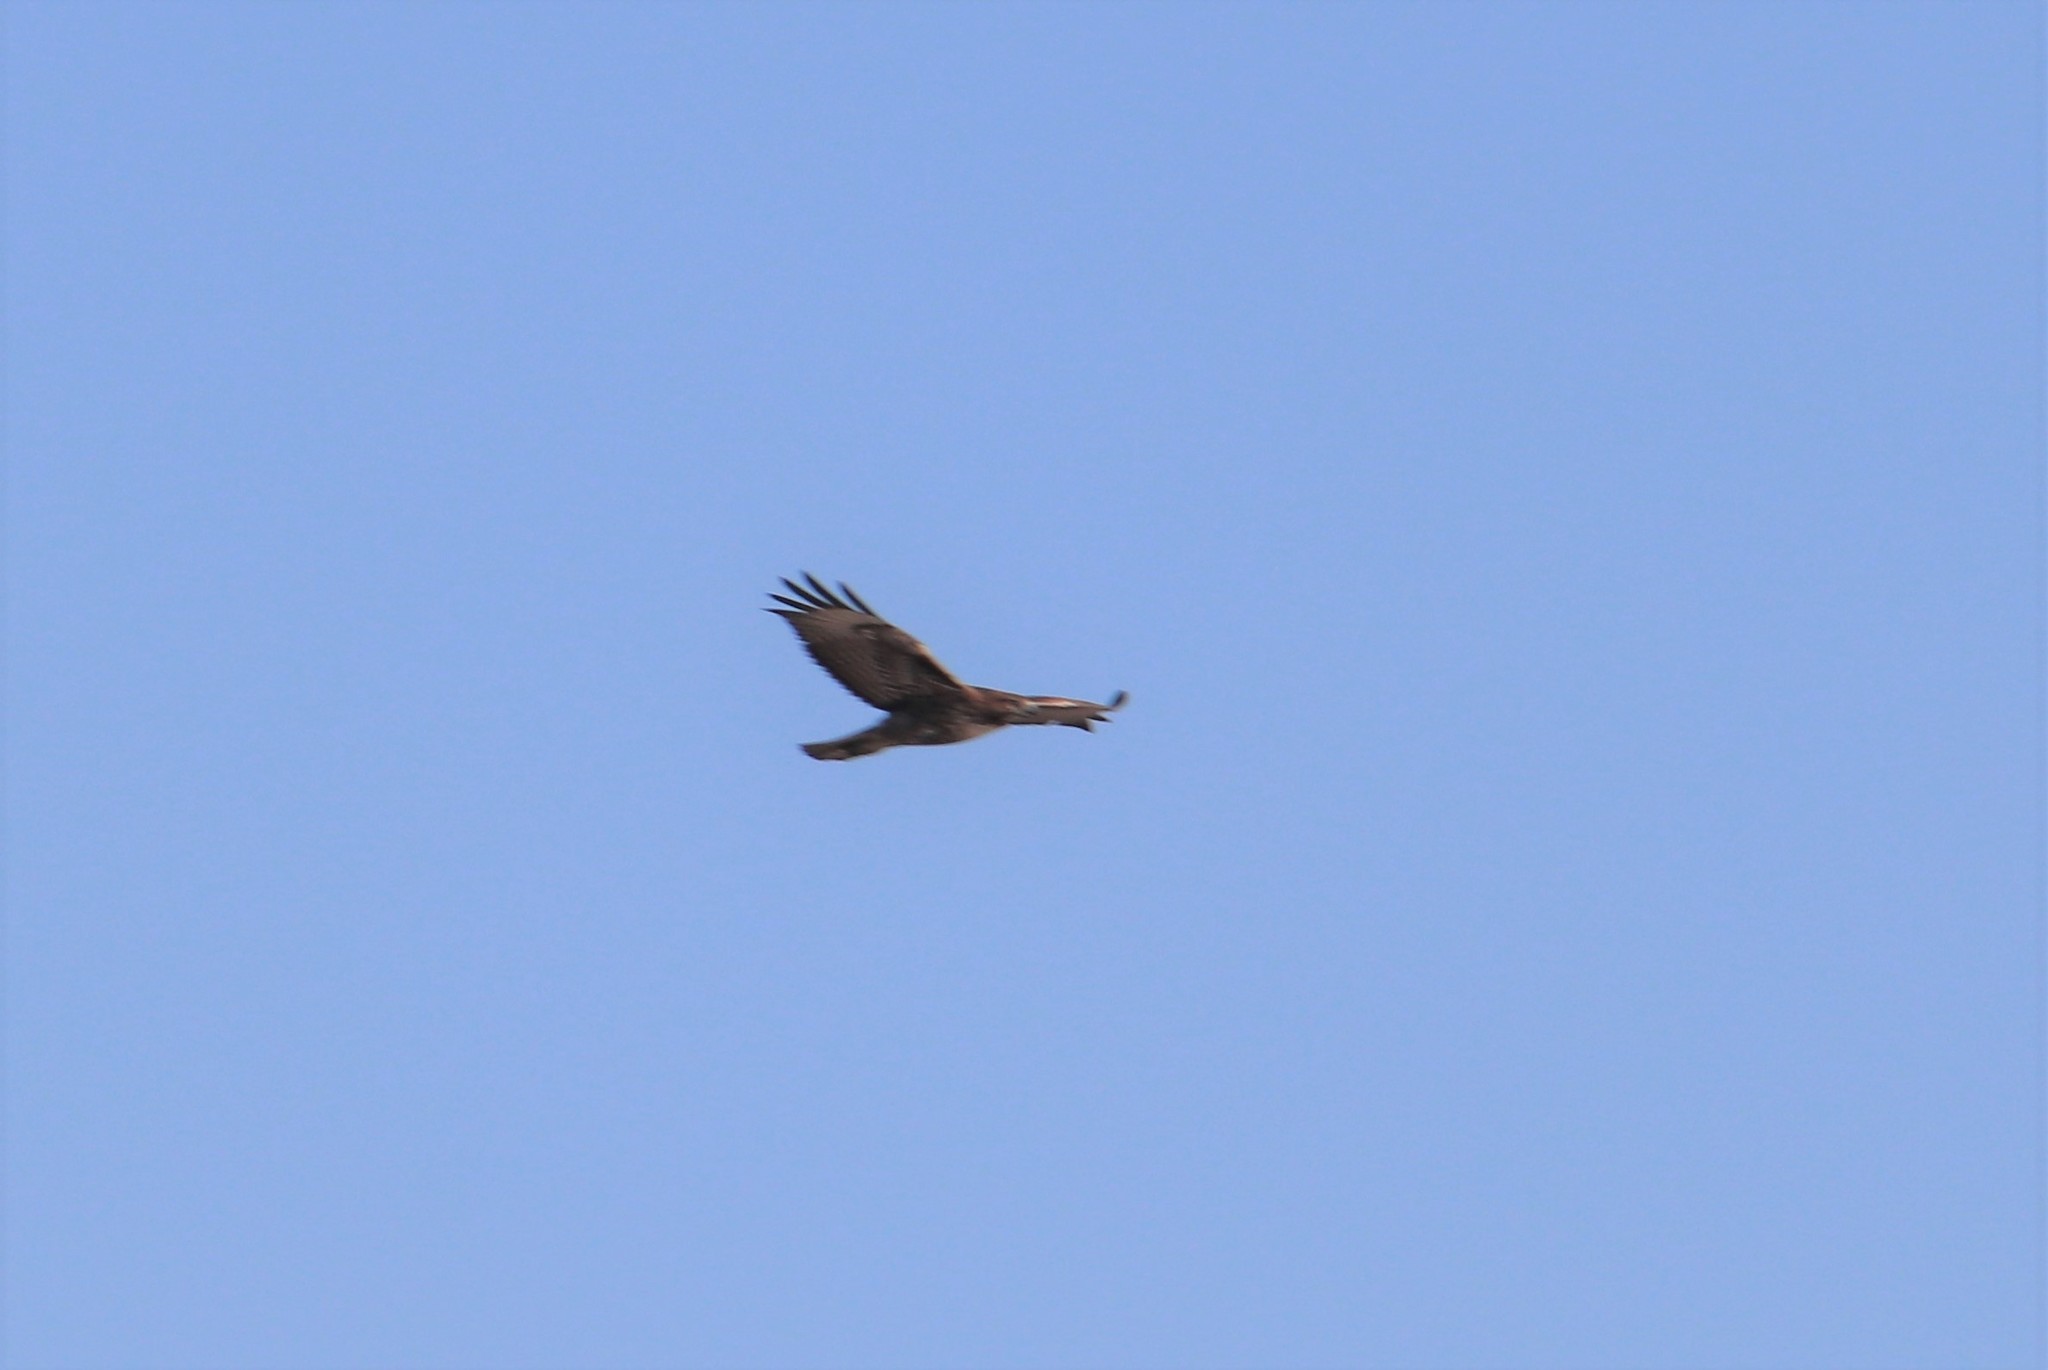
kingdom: Animalia
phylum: Chordata
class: Aves
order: Accipitriformes
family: Accipitridae
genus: Buteo
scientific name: Buteo jamaicensis
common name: Red-tailed hawk
